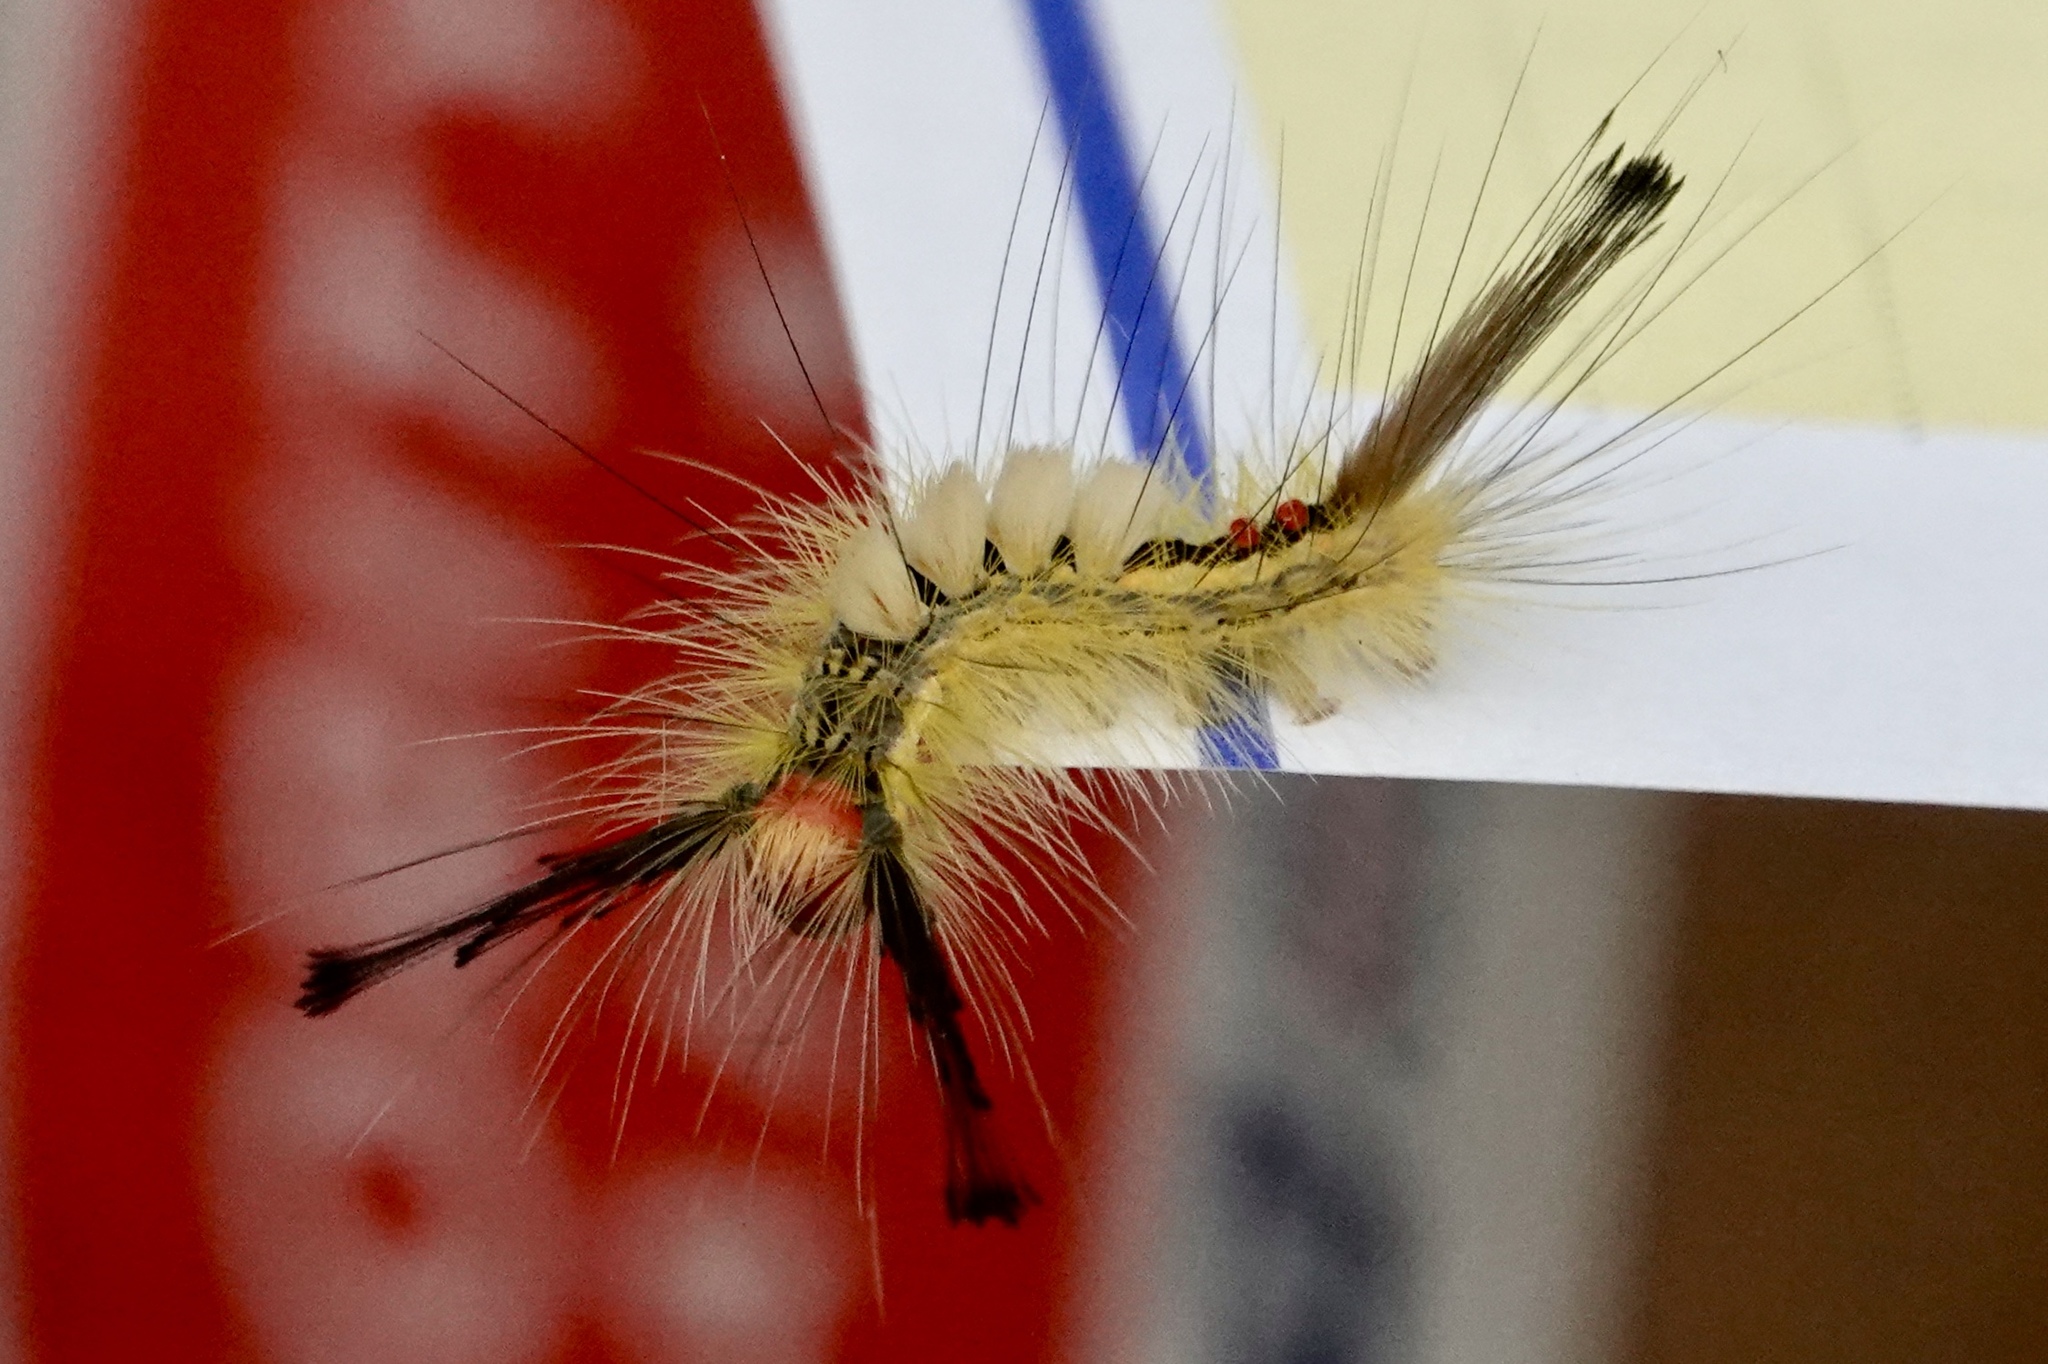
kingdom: Animalia
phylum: Arthropoda
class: Insecta
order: Lepidoptera
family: Erebidae
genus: Orgyia
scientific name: Orgyia leucostigma
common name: White-marked tussock moth
